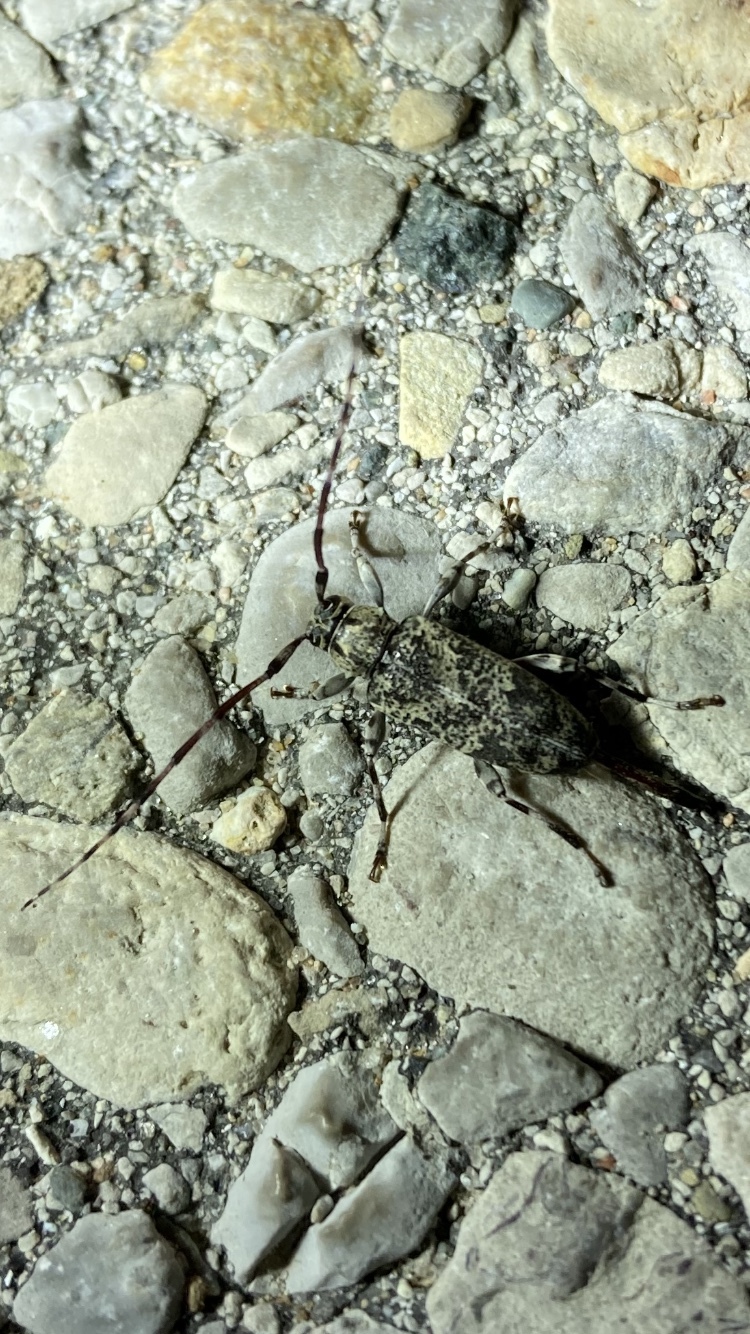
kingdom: Animalia
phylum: Arthropoda
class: Insecta
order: Coleoptera
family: Cerambycidae
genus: Graphisurus
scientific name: Graphisurus fasciatus
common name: Banded graphisurus
